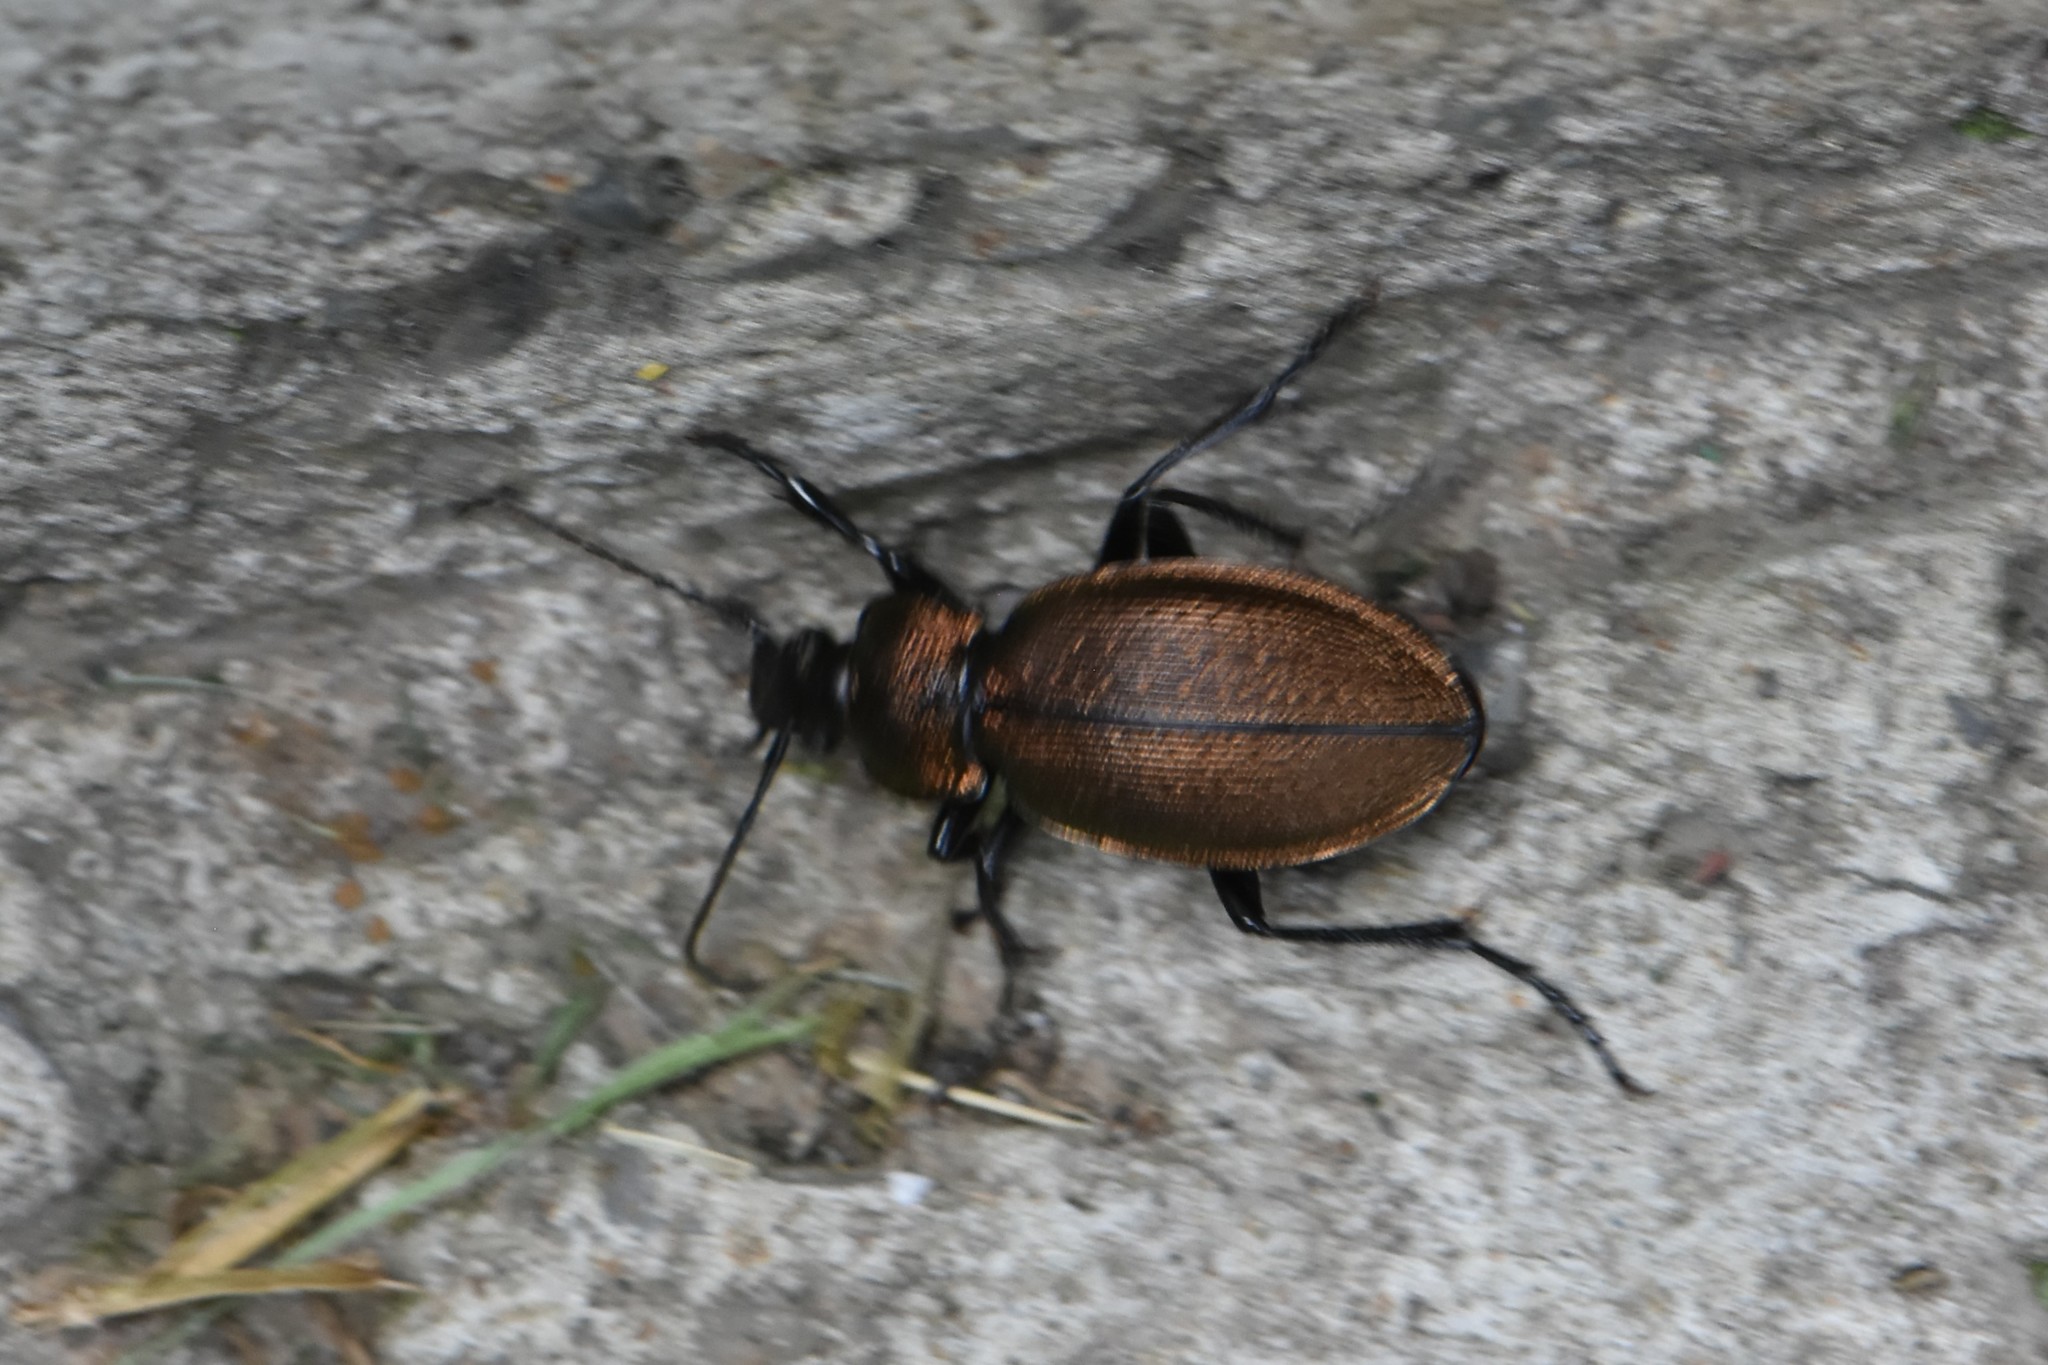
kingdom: Animalia
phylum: Arthropoda
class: Insecta
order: Coleoptera
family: Carabidae
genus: Carabus
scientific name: Carabus regalis
